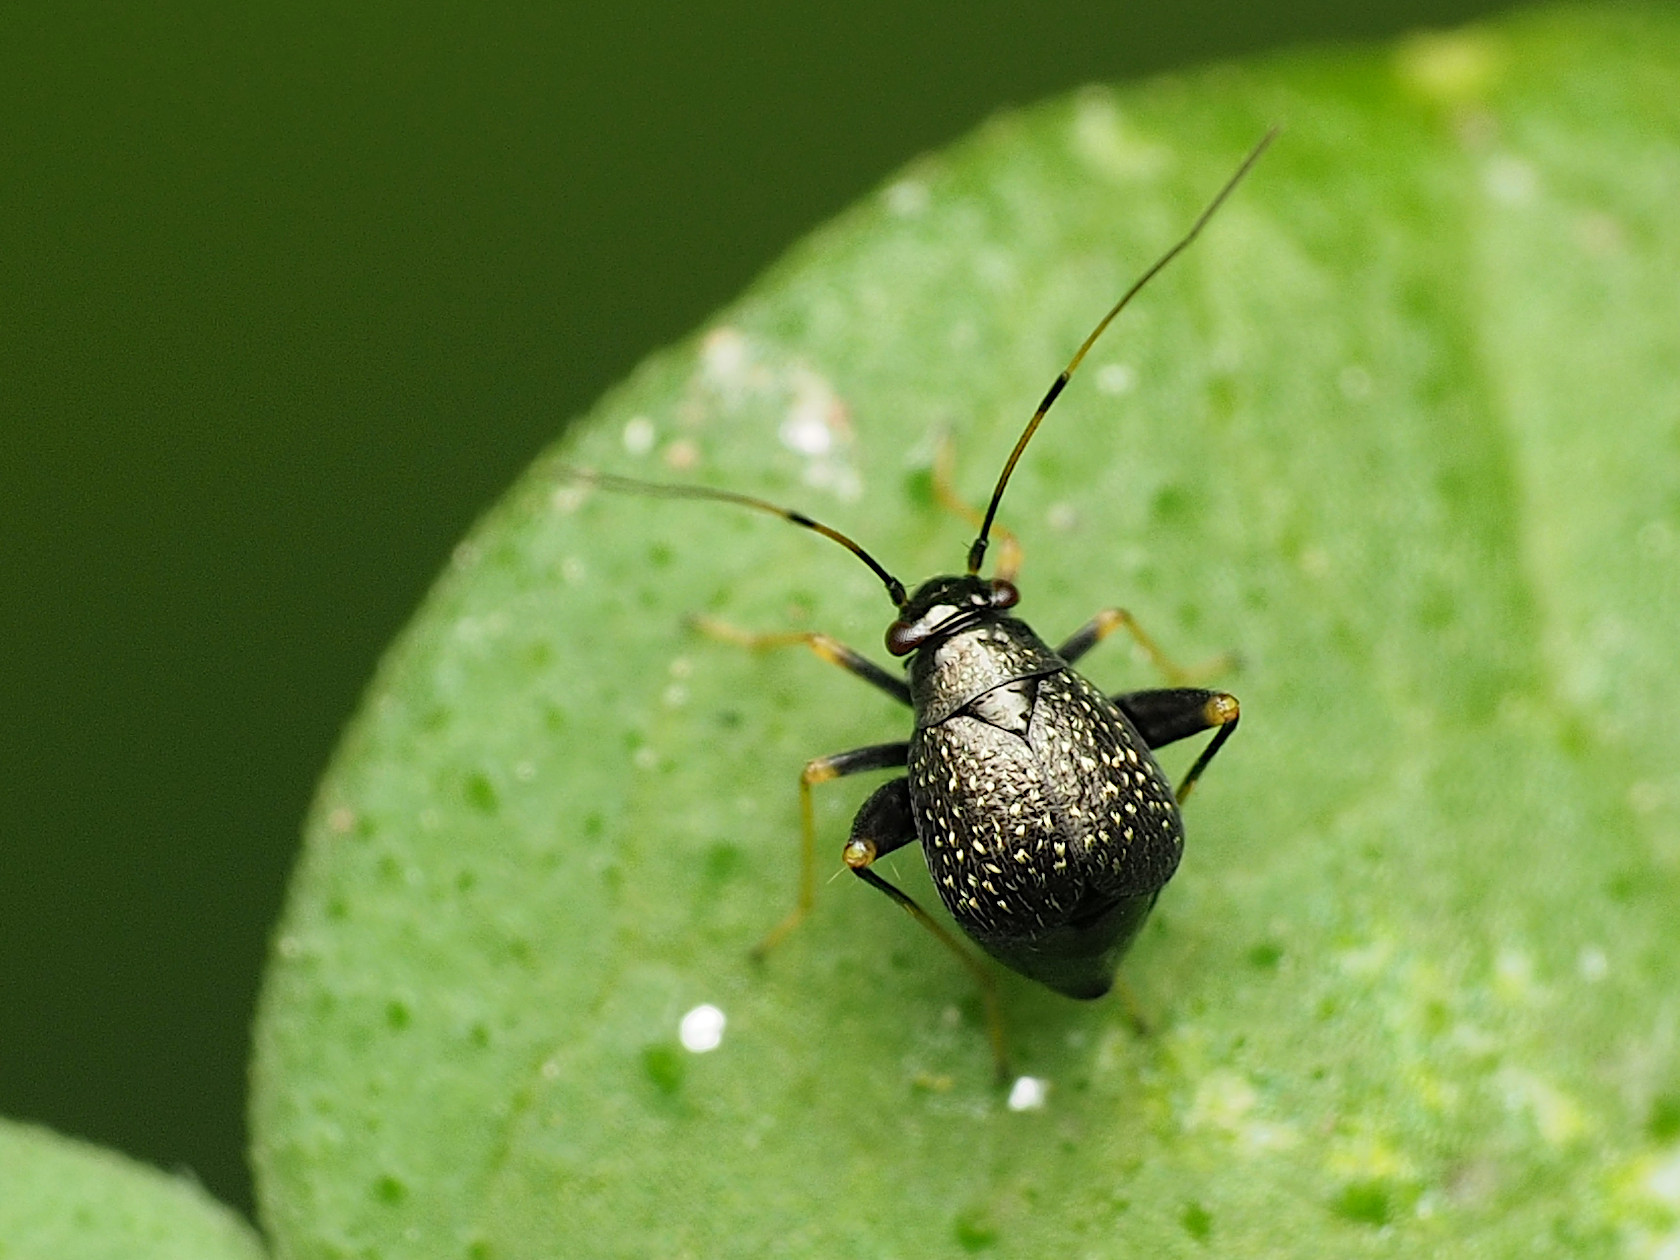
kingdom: Animalia
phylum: Arthropoda
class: Insecta
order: Hemiptera
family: Miridae
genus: Microtechnites
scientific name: Microtechnites bractatus
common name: Garden fleahopper
